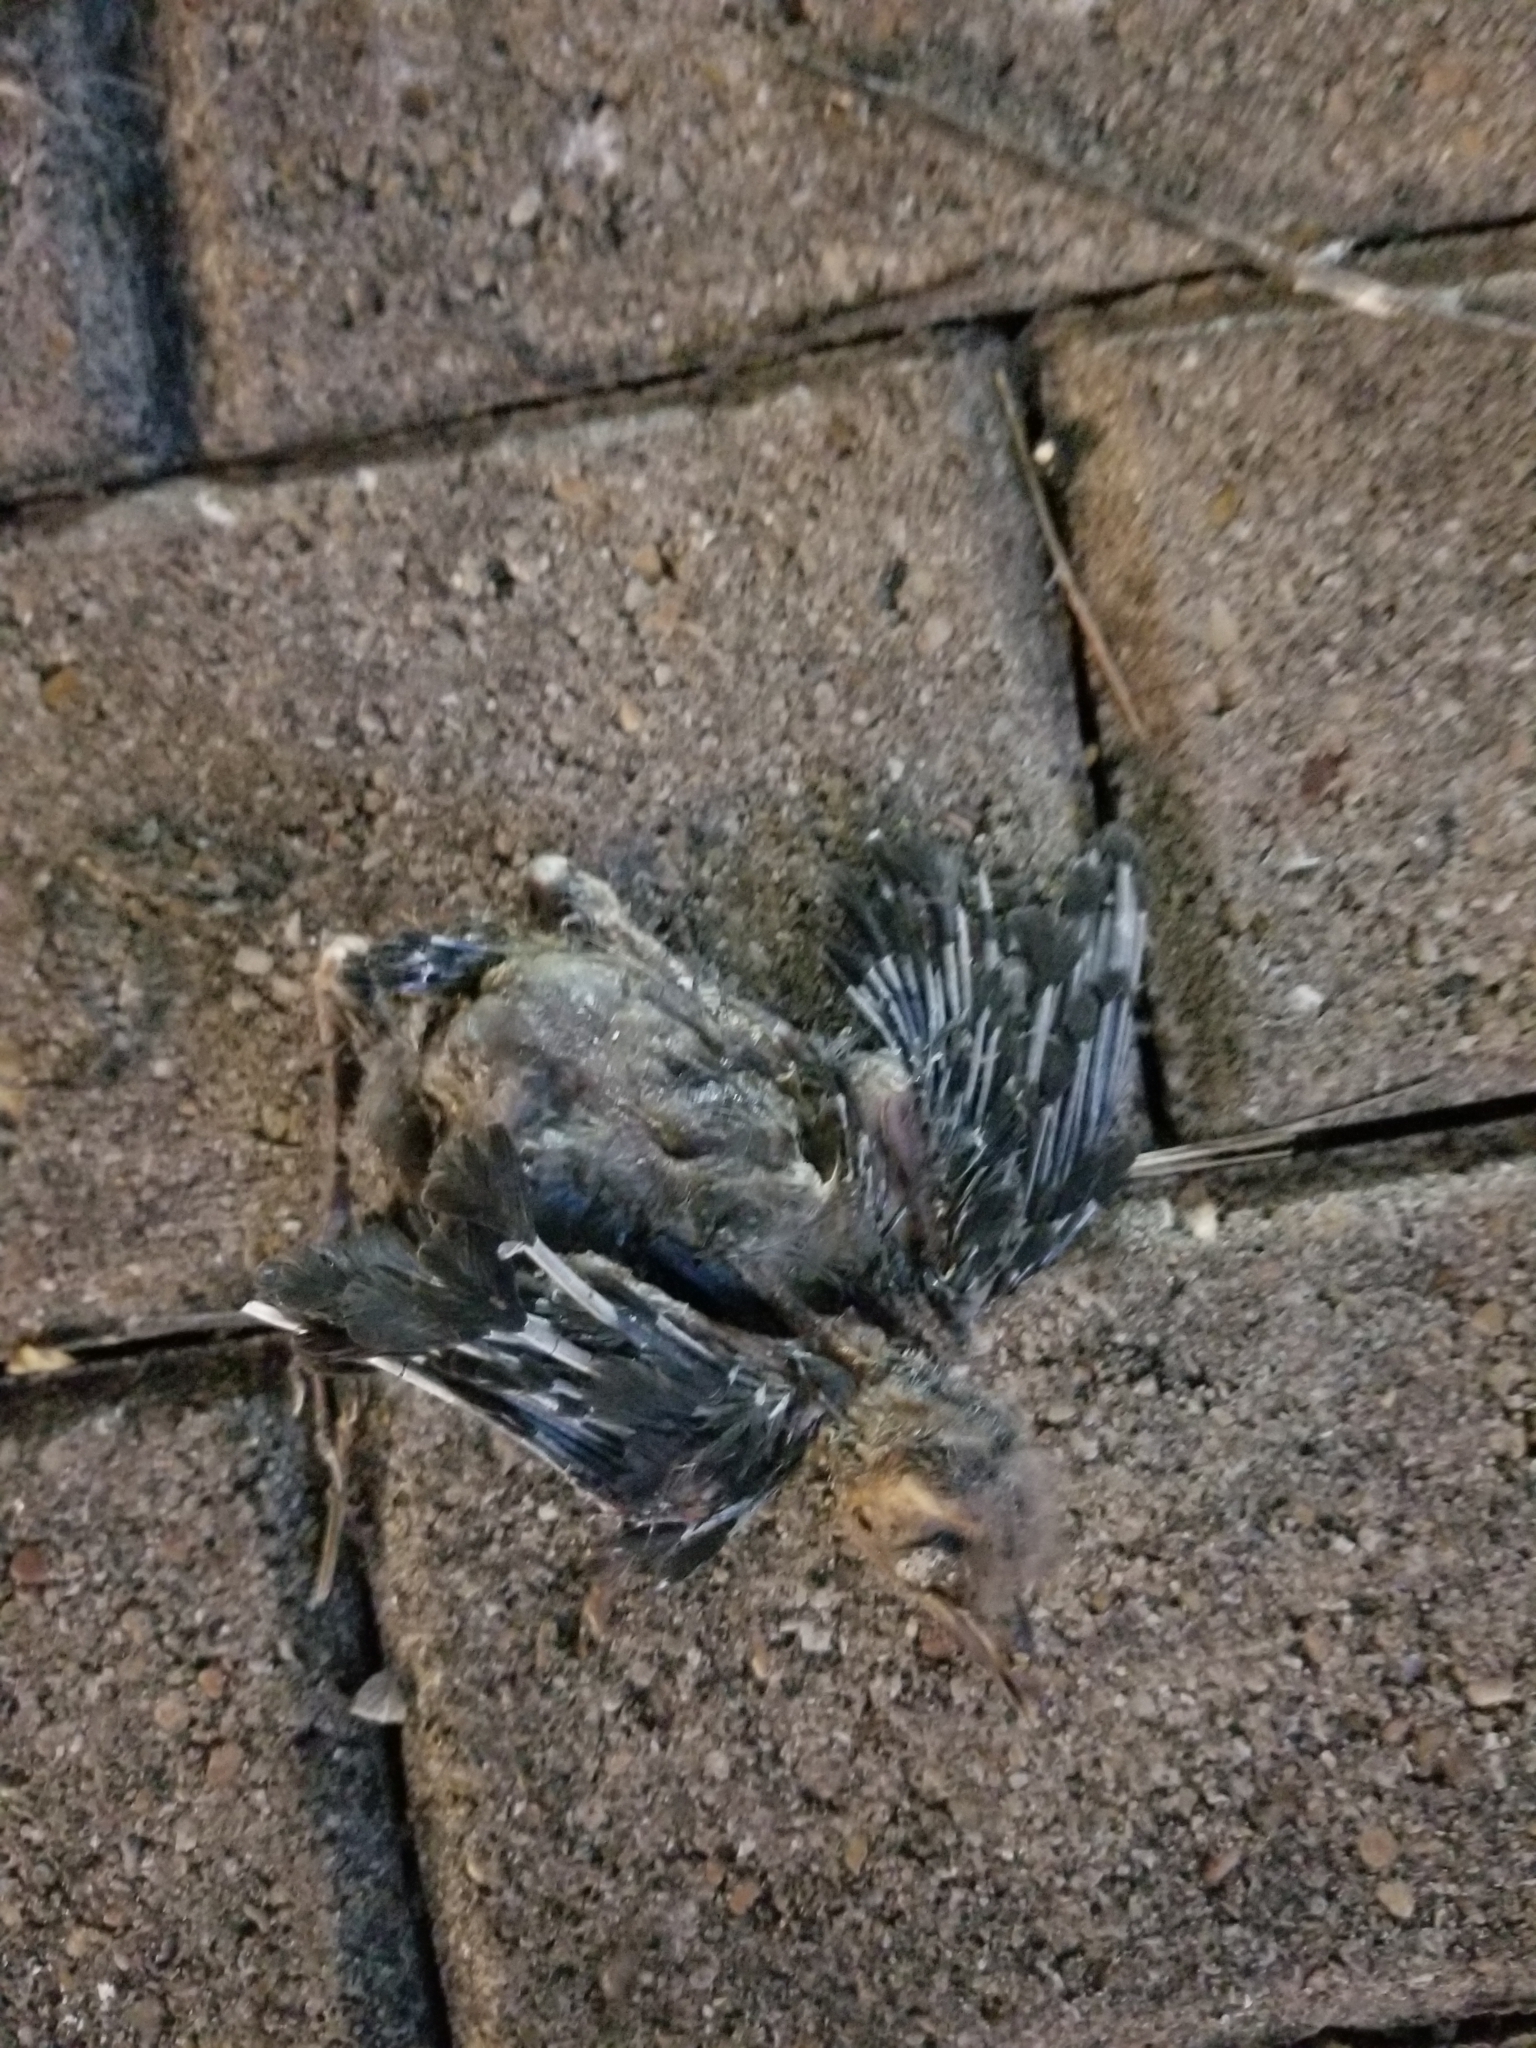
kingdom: Animalia
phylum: Chordata
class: Aves
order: Passeriformes
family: Icteridae
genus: Quiscalus
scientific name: Quiscalus mexicanus
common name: Great-tailed grackle
